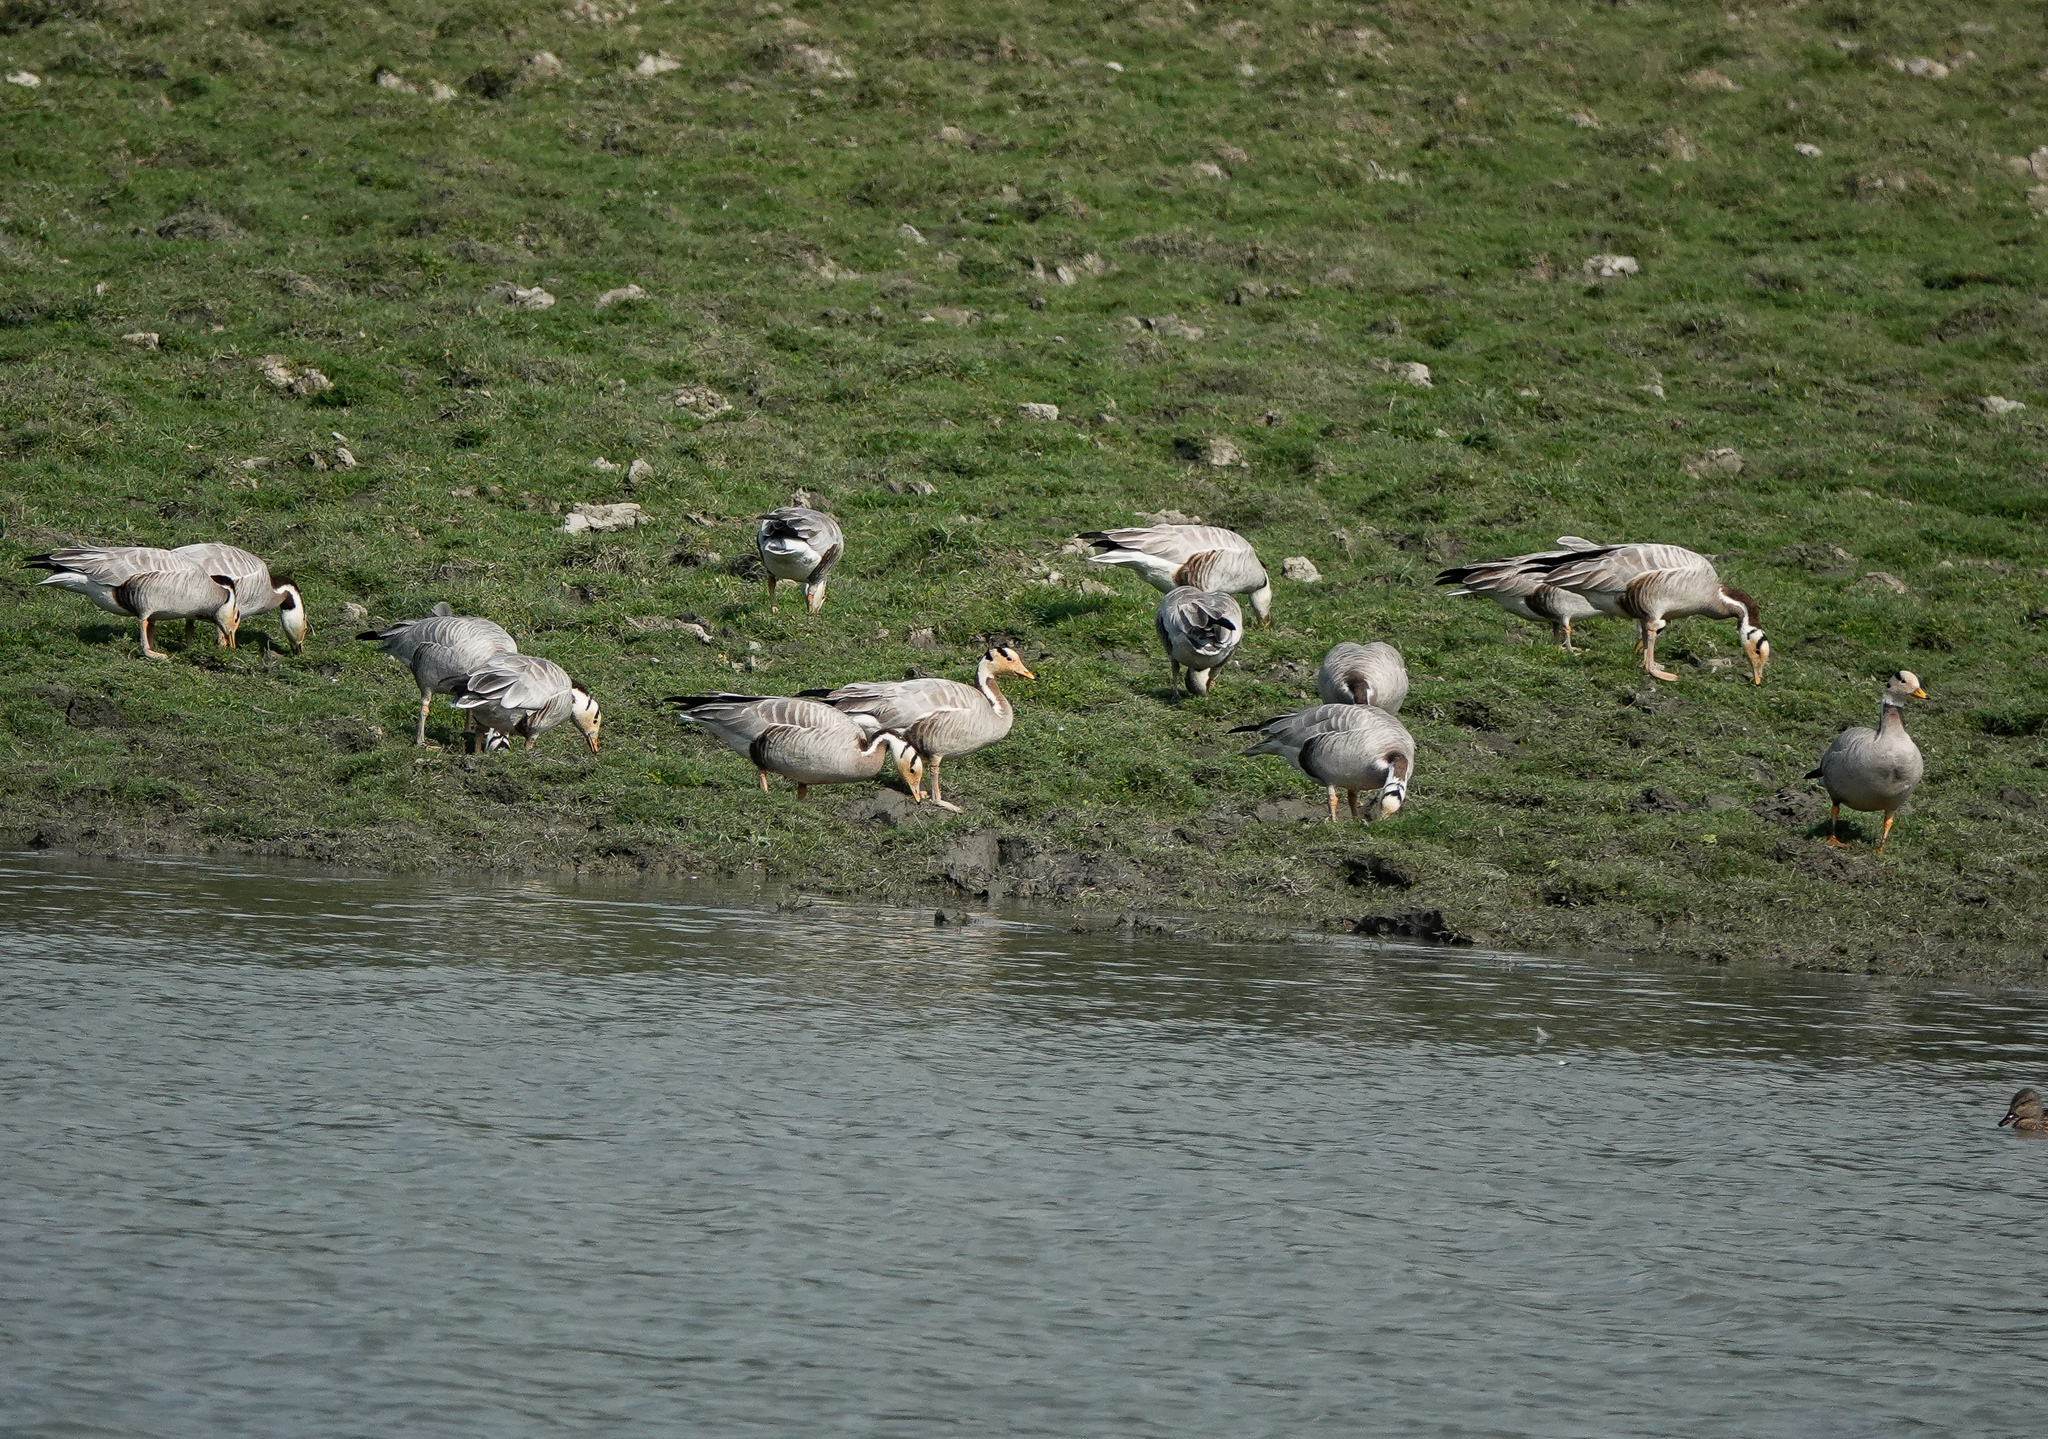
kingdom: Animalia
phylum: Chordata
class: Aves
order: Anseriformes
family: Anatidae
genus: Anser
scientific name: Anser indicus
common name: Bar-headed goose
